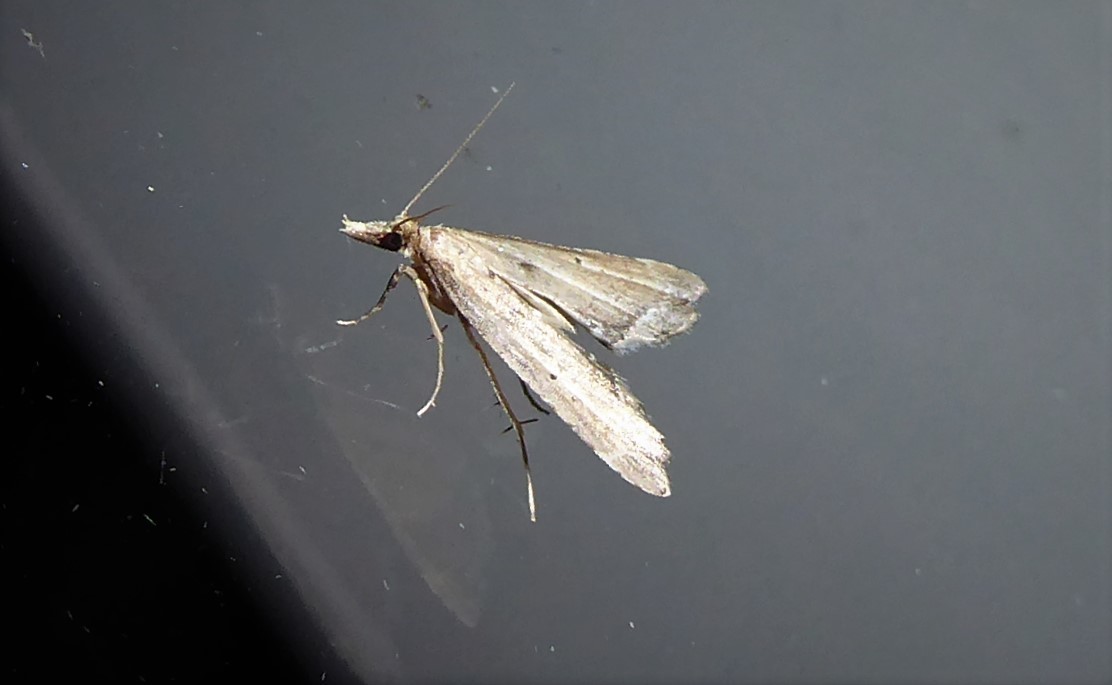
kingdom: Animalia
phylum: Arthropoda
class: Insecta
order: Lepidoptera
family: Crambidae
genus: Diplopseustis
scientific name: Diplopseustis perieresalis
